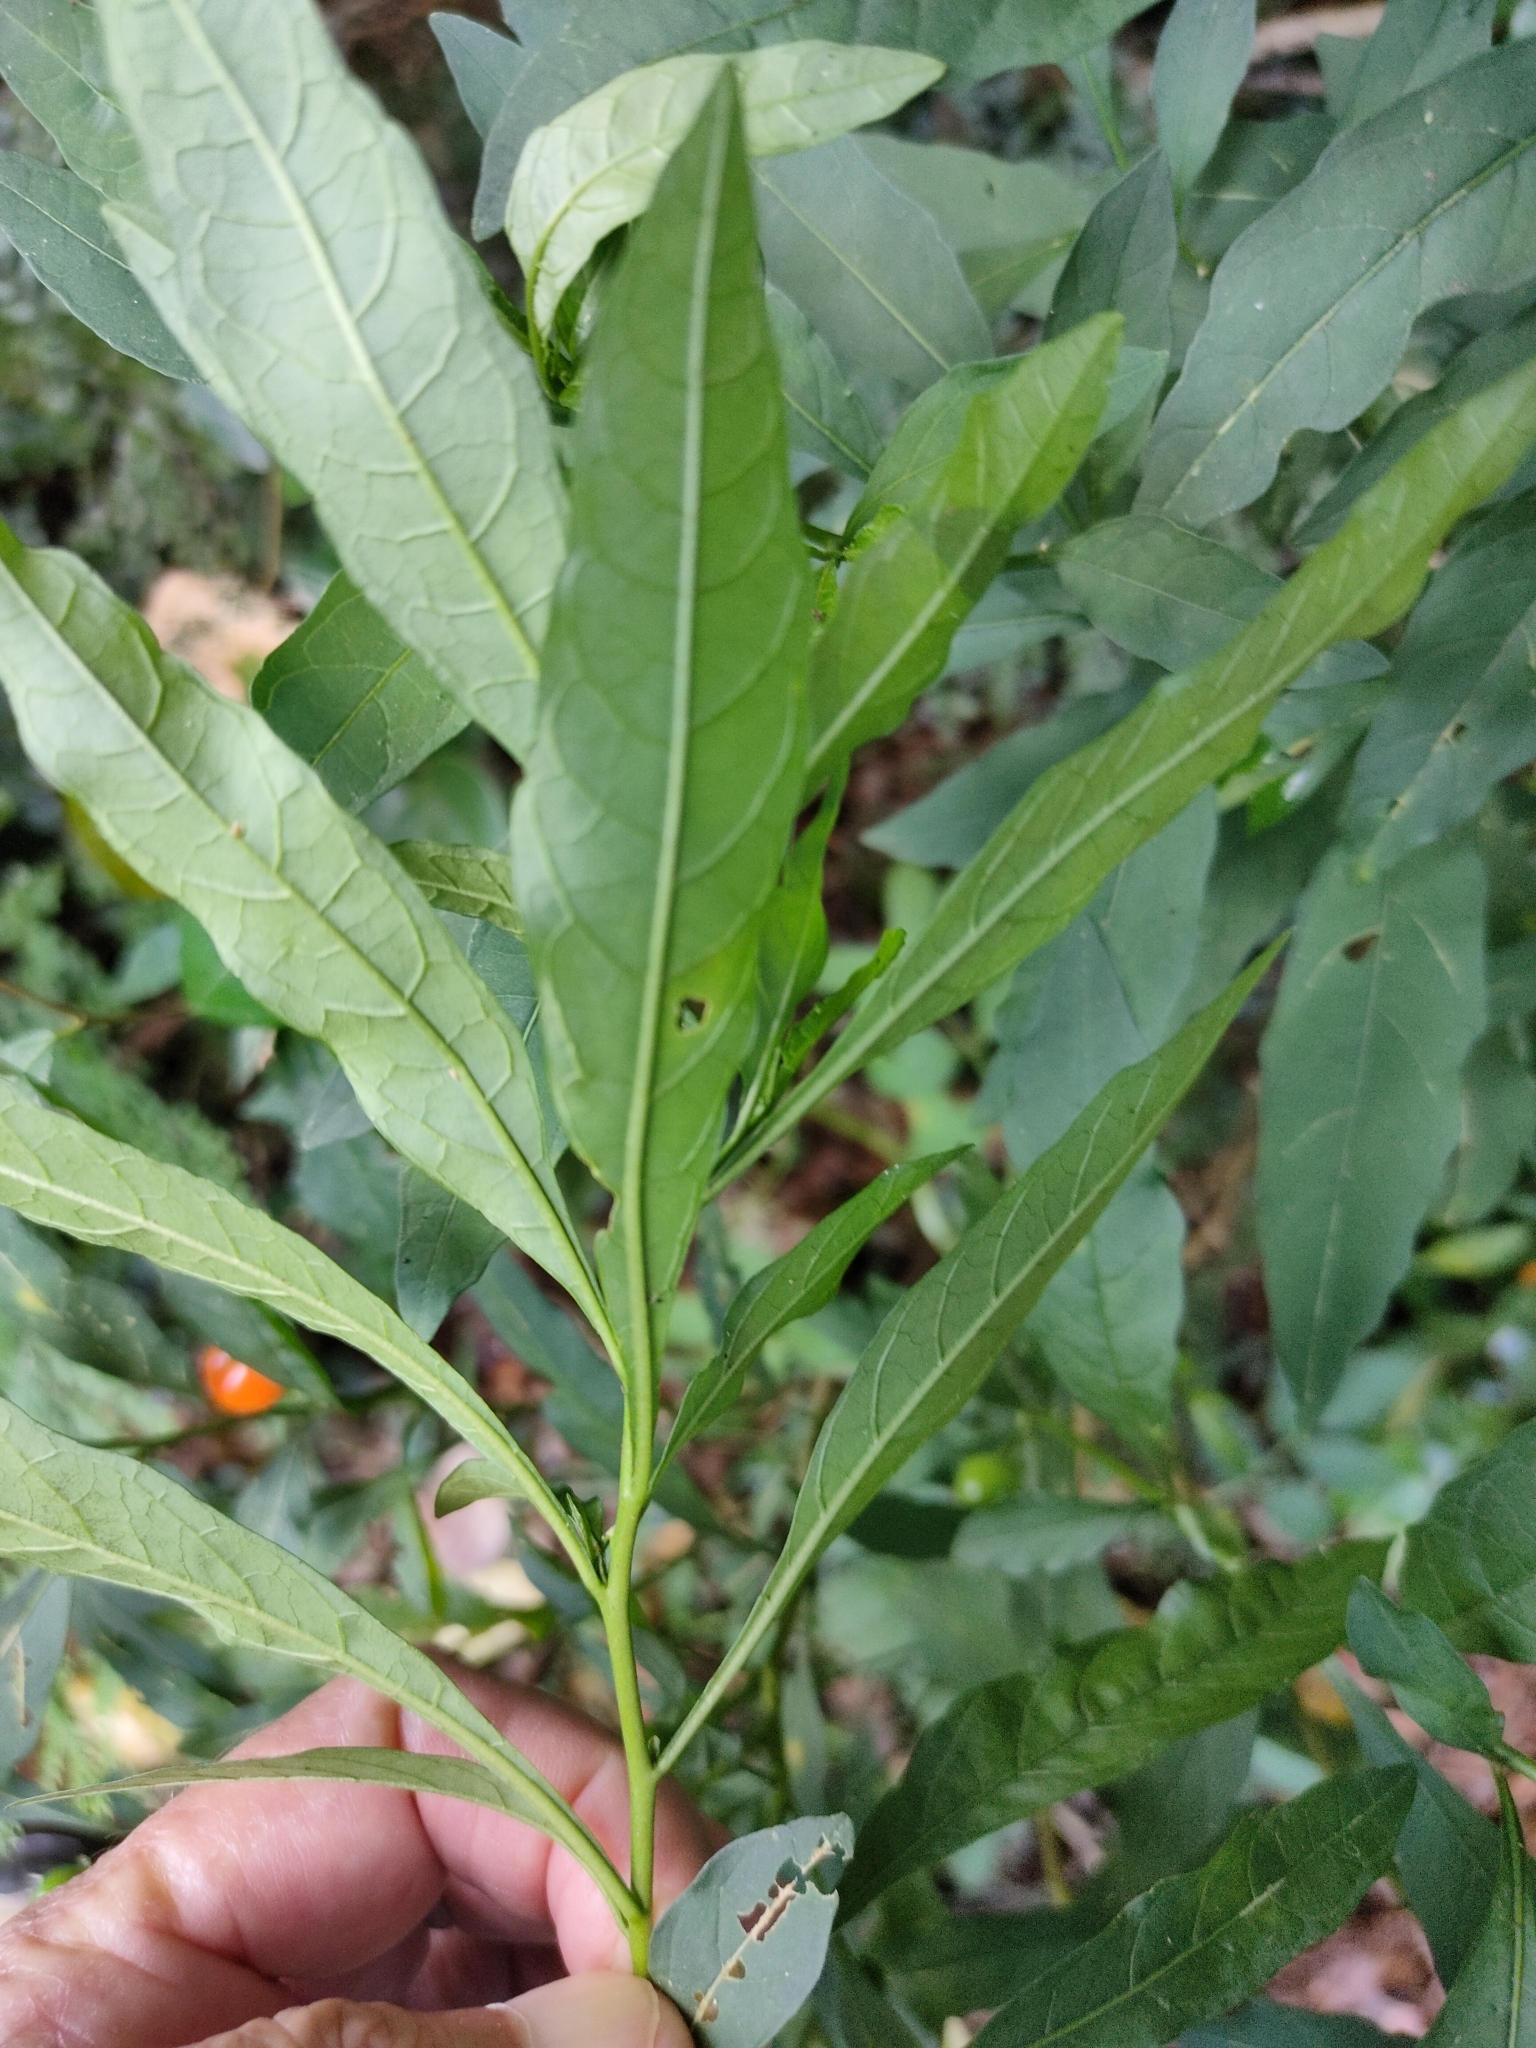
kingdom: Plantae
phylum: Tracheophyta
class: Magnoliopsida
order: Solanales
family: Solanaceae
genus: Solanum
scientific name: Solanum pseudocapsicum
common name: Jerusalem cherry
